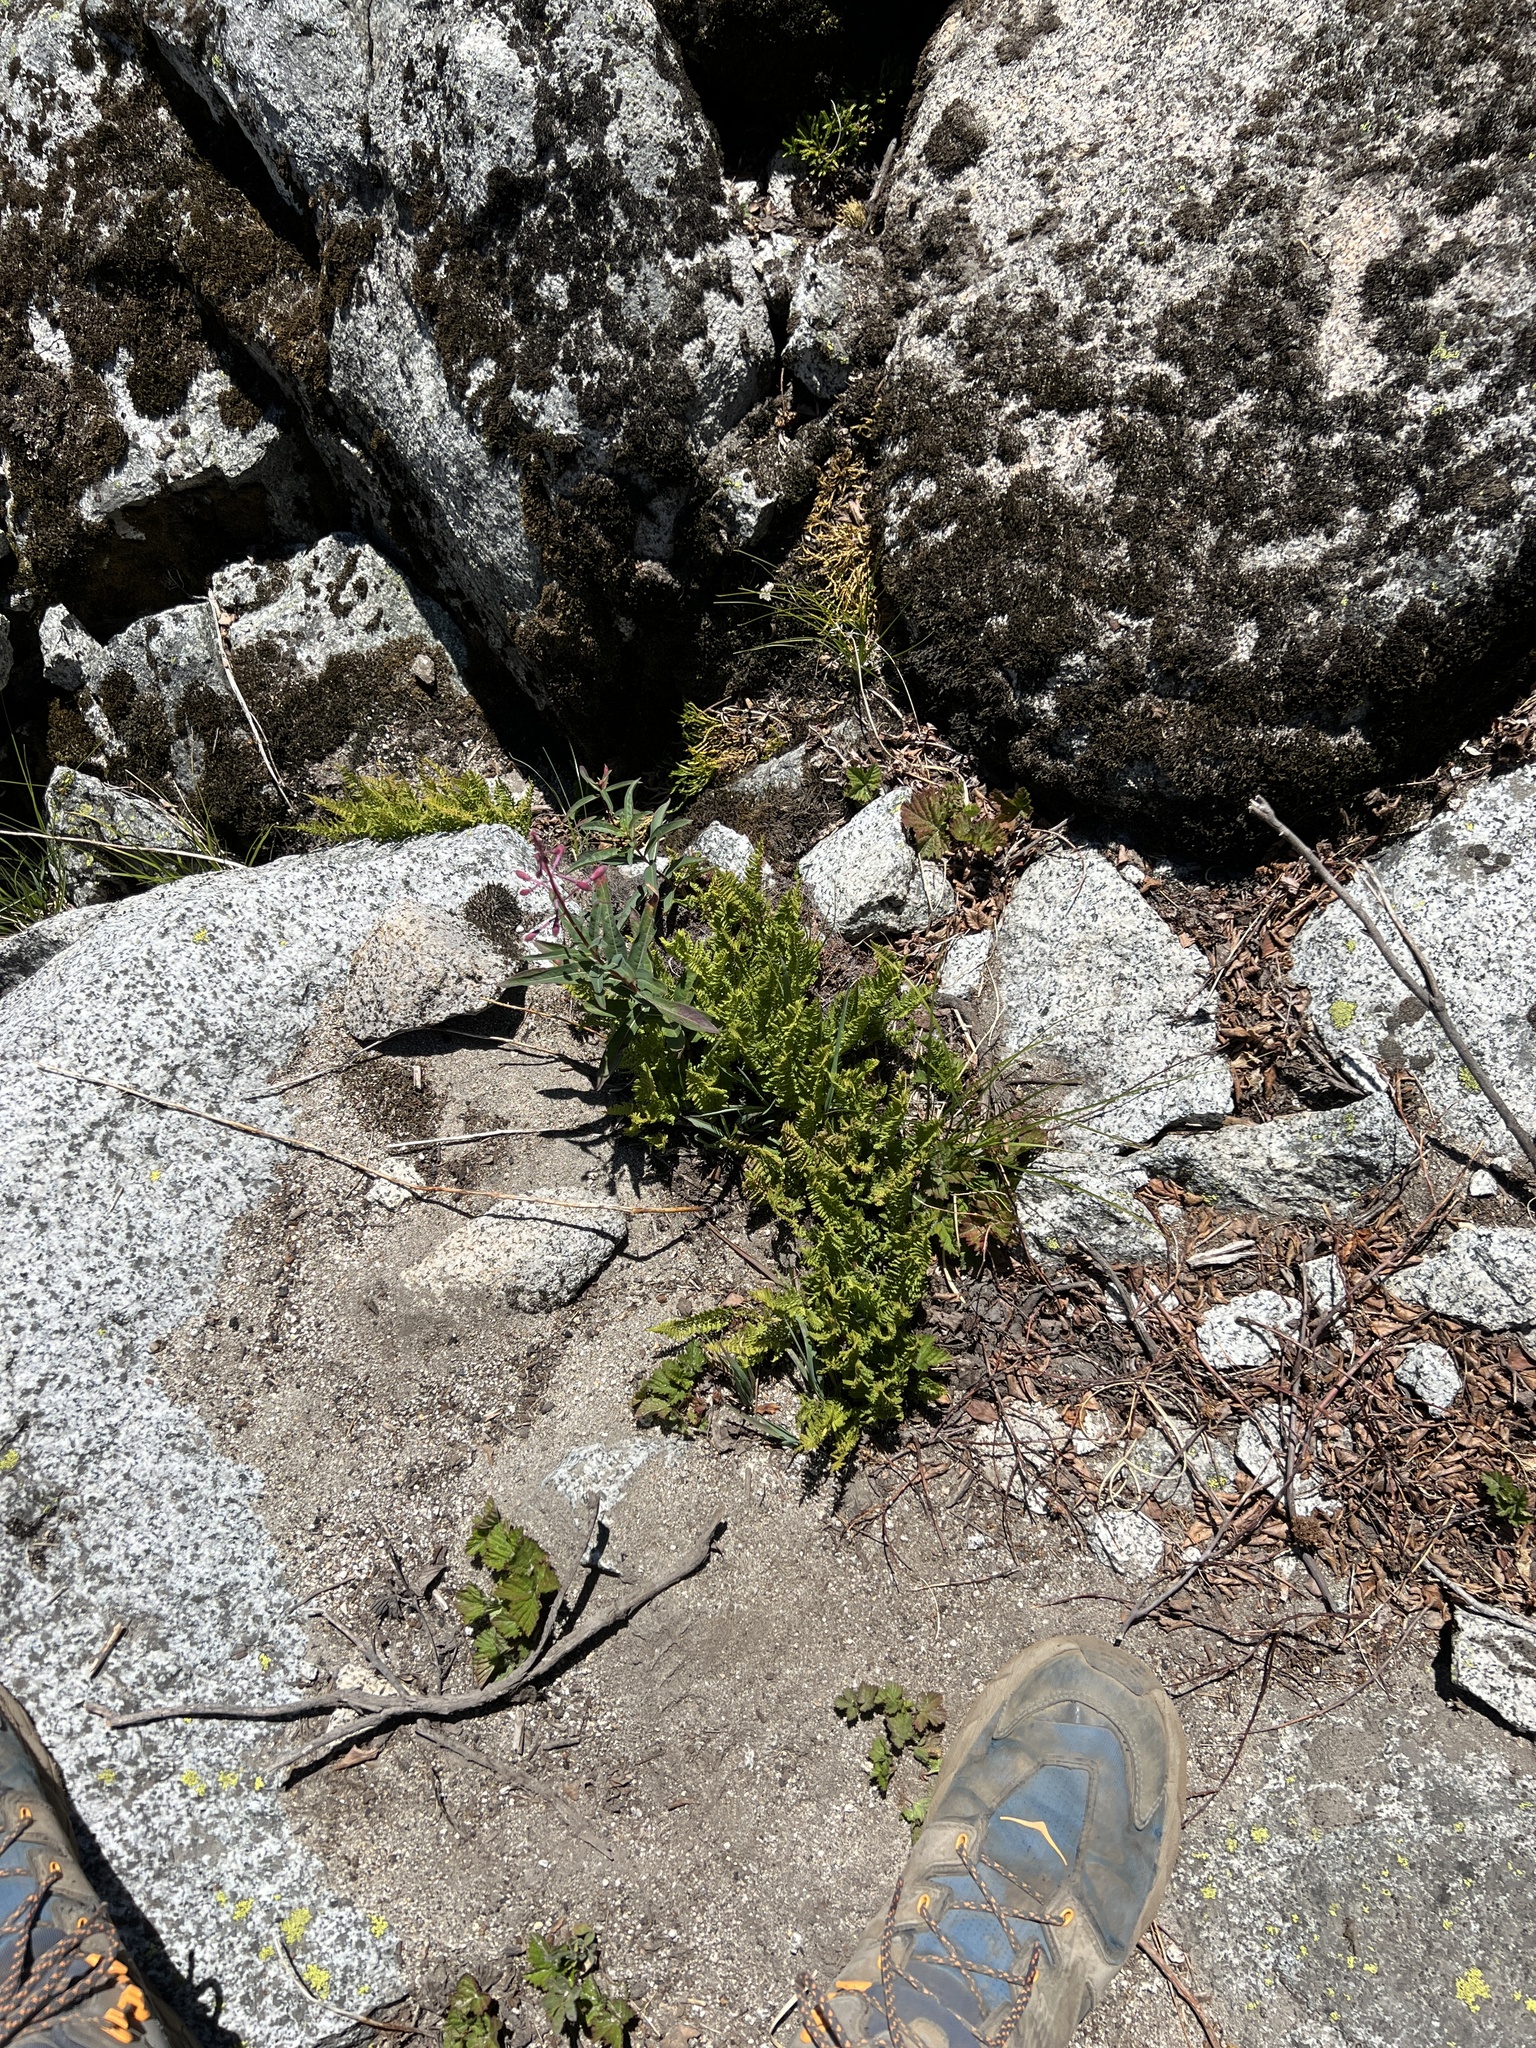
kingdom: Plantae
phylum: Tracheophyta
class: Polypodiopsida
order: Polypodiales
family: Athyriaceae
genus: Athyrium
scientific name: Athyrium americanum
